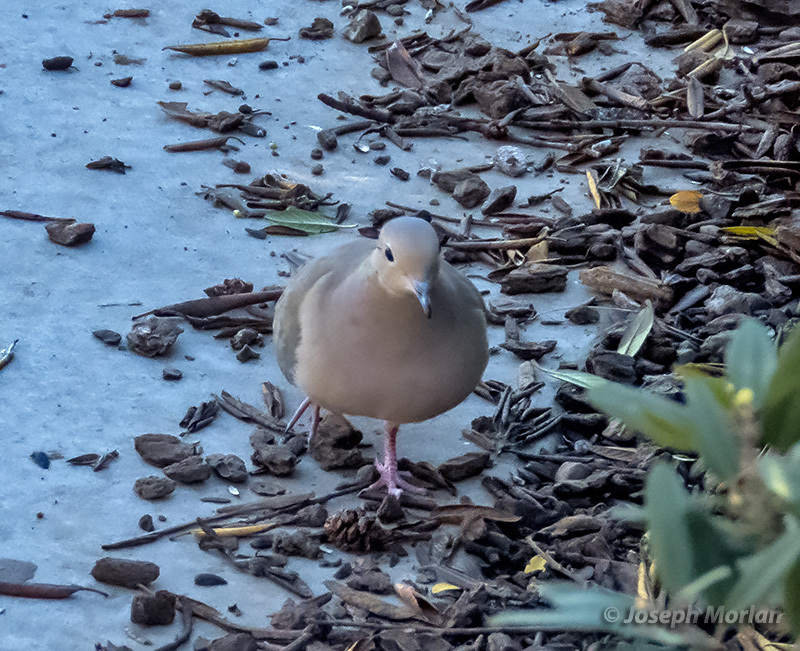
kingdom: Animalia
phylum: Chordata
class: Aves
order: Columbiformes
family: Columbidae
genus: Zenaida
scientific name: Zenaida macroura
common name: Mourning dove
